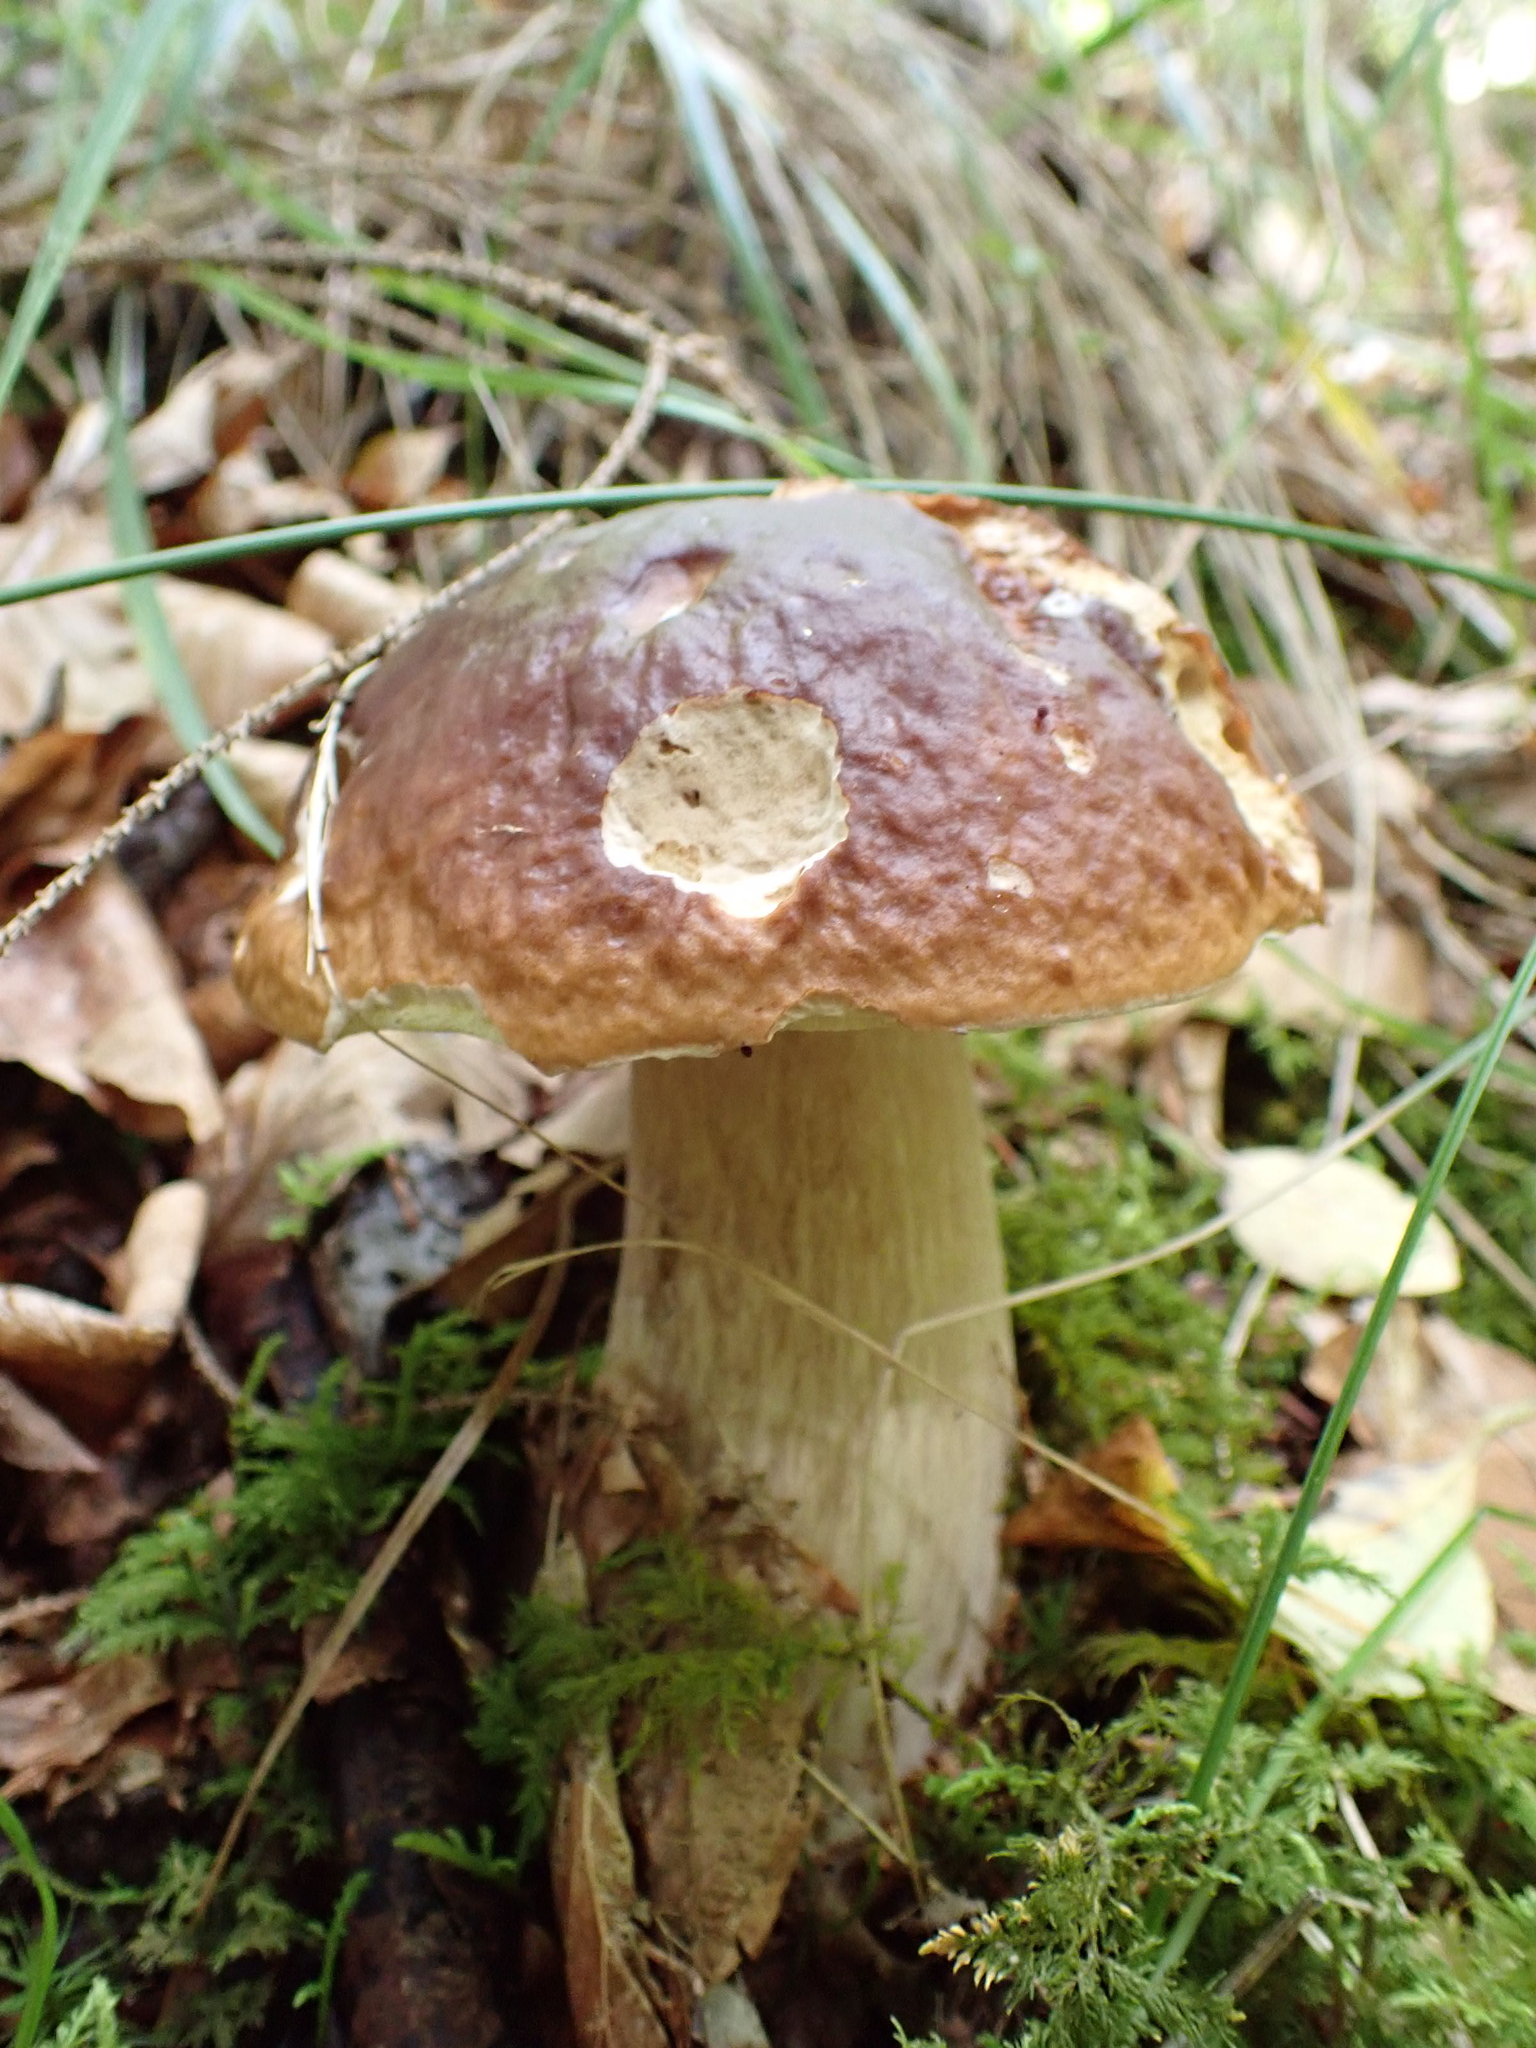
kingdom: Fungi
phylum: Basidiomycota
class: Agaricomycetes
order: Boletales
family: Boletaceae
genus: Boletus
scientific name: Boletus edulis
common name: Cep
